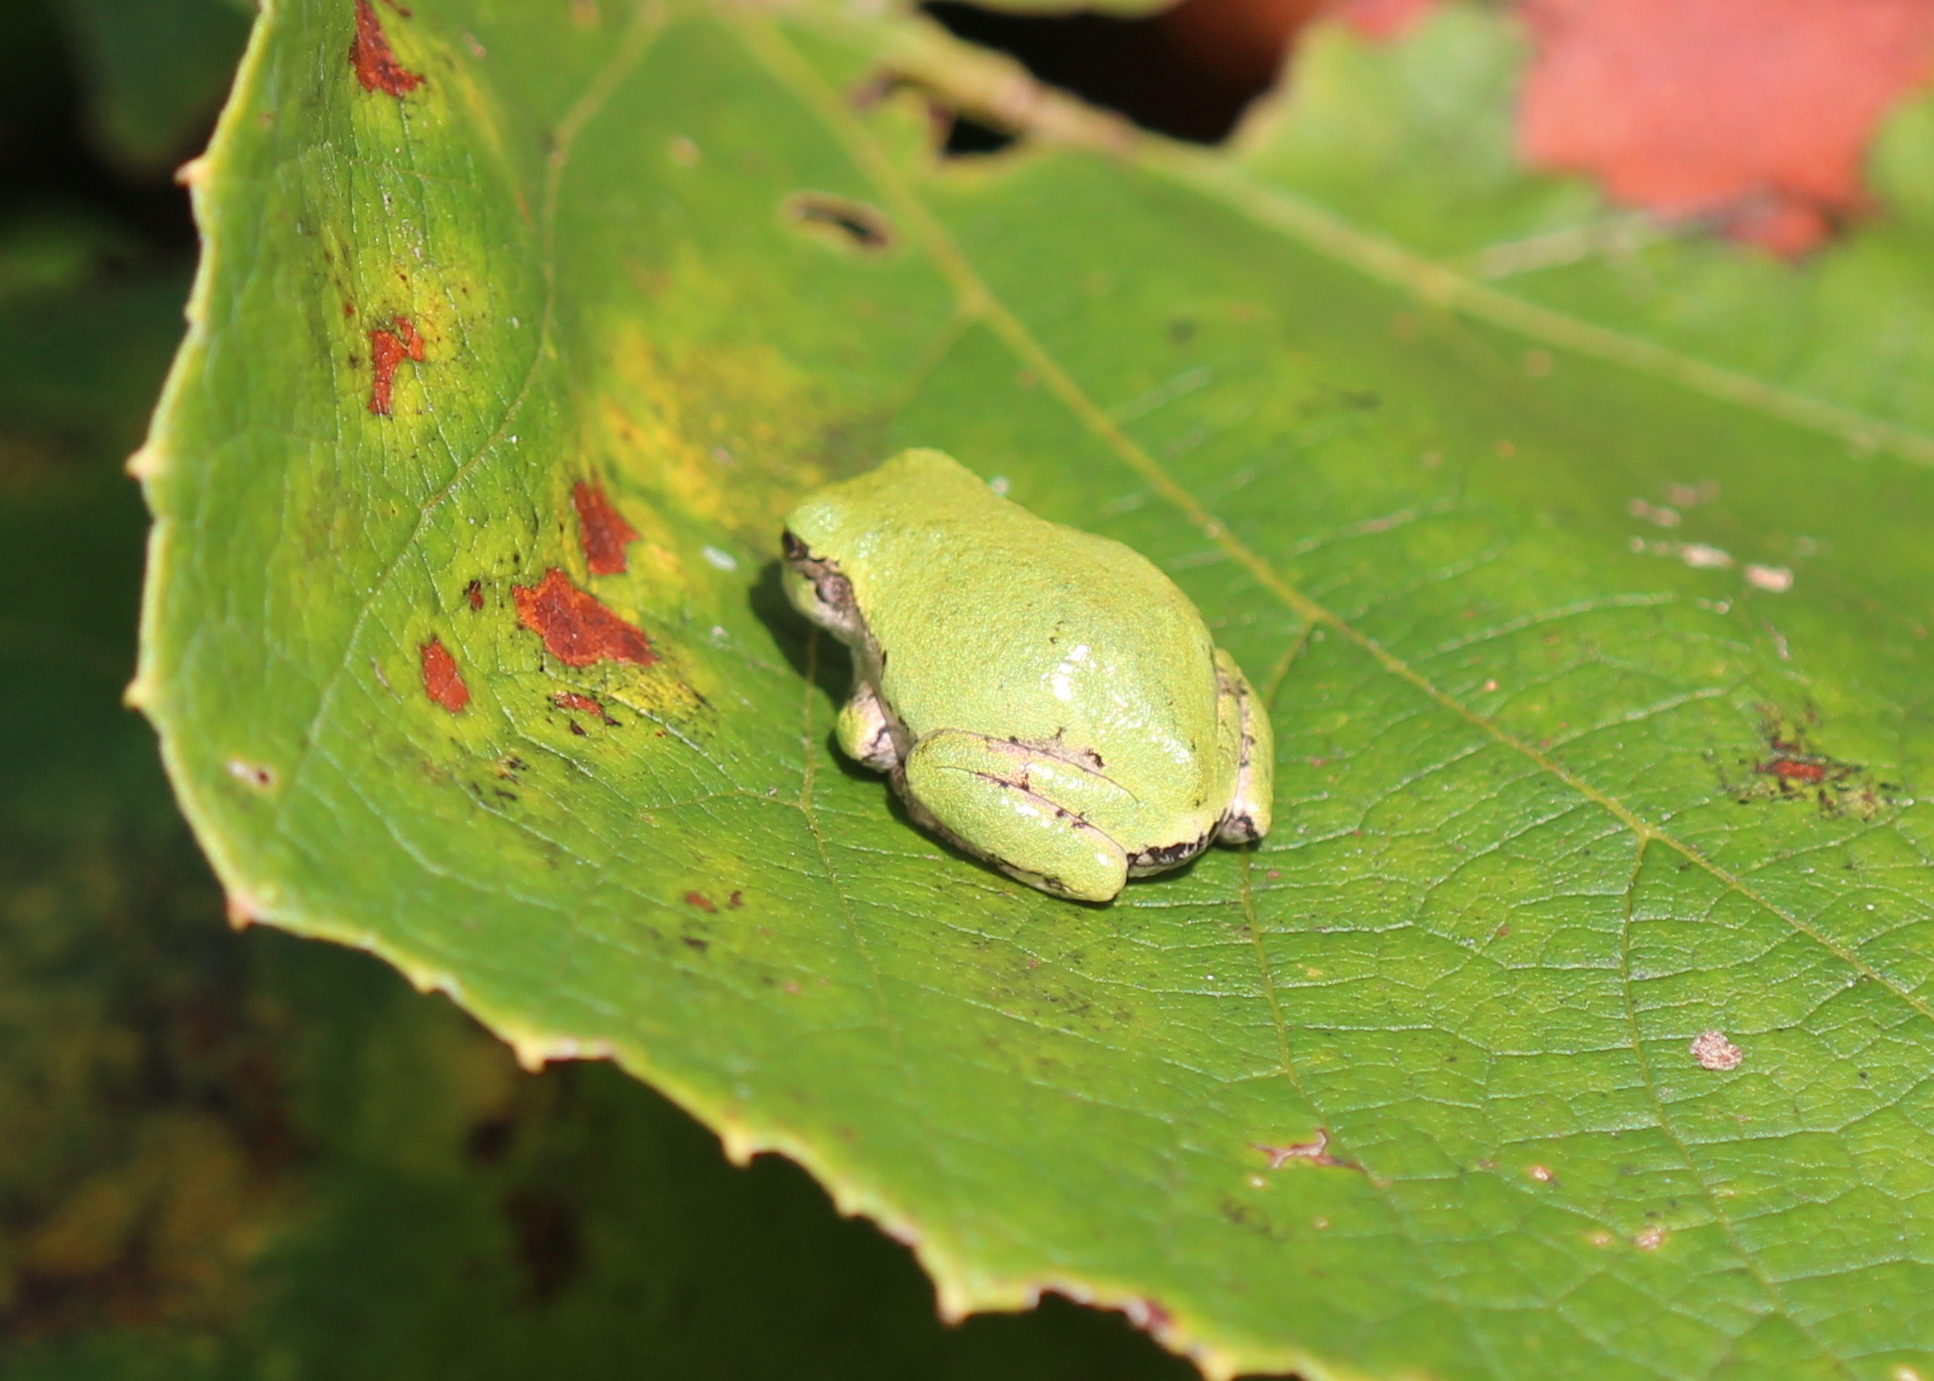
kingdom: Animalia
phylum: Chordata
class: Amphibia
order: Anura
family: Hylidae
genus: Dryophytes
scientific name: Dryophytes versicolor
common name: Gray treefrog
